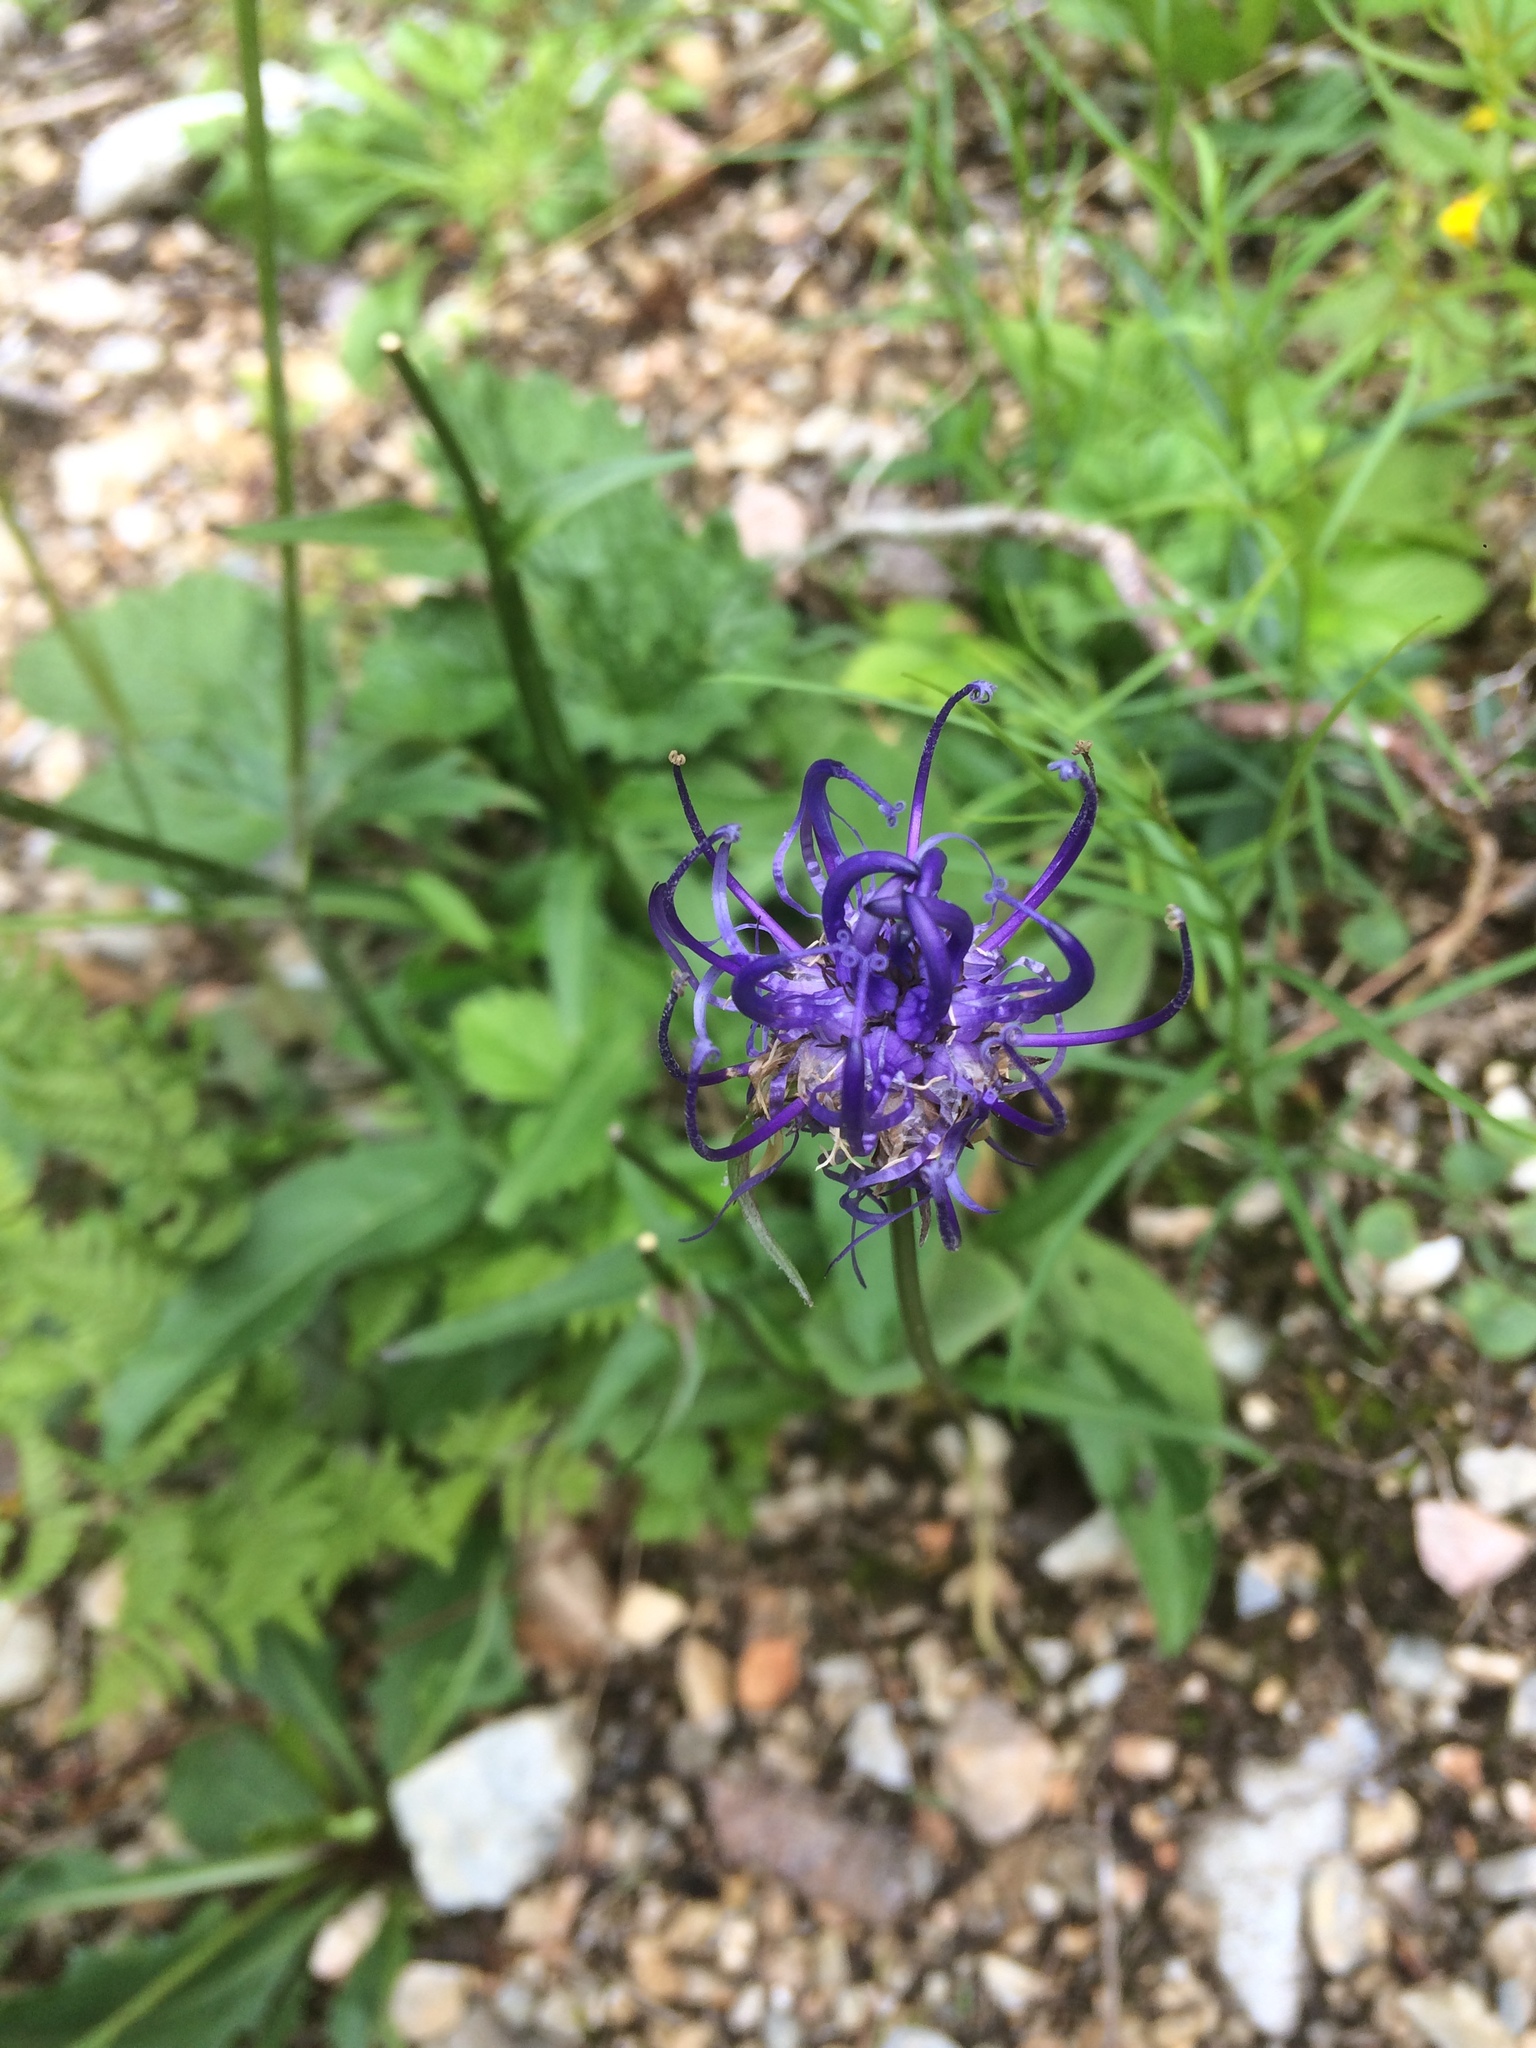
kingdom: Plantae
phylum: Tracheophyta
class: Magnoliopsida
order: Asterales
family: Campanulaceae
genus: Phyteuma
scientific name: Phyteuma orbiculare
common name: Round-headed rampion
